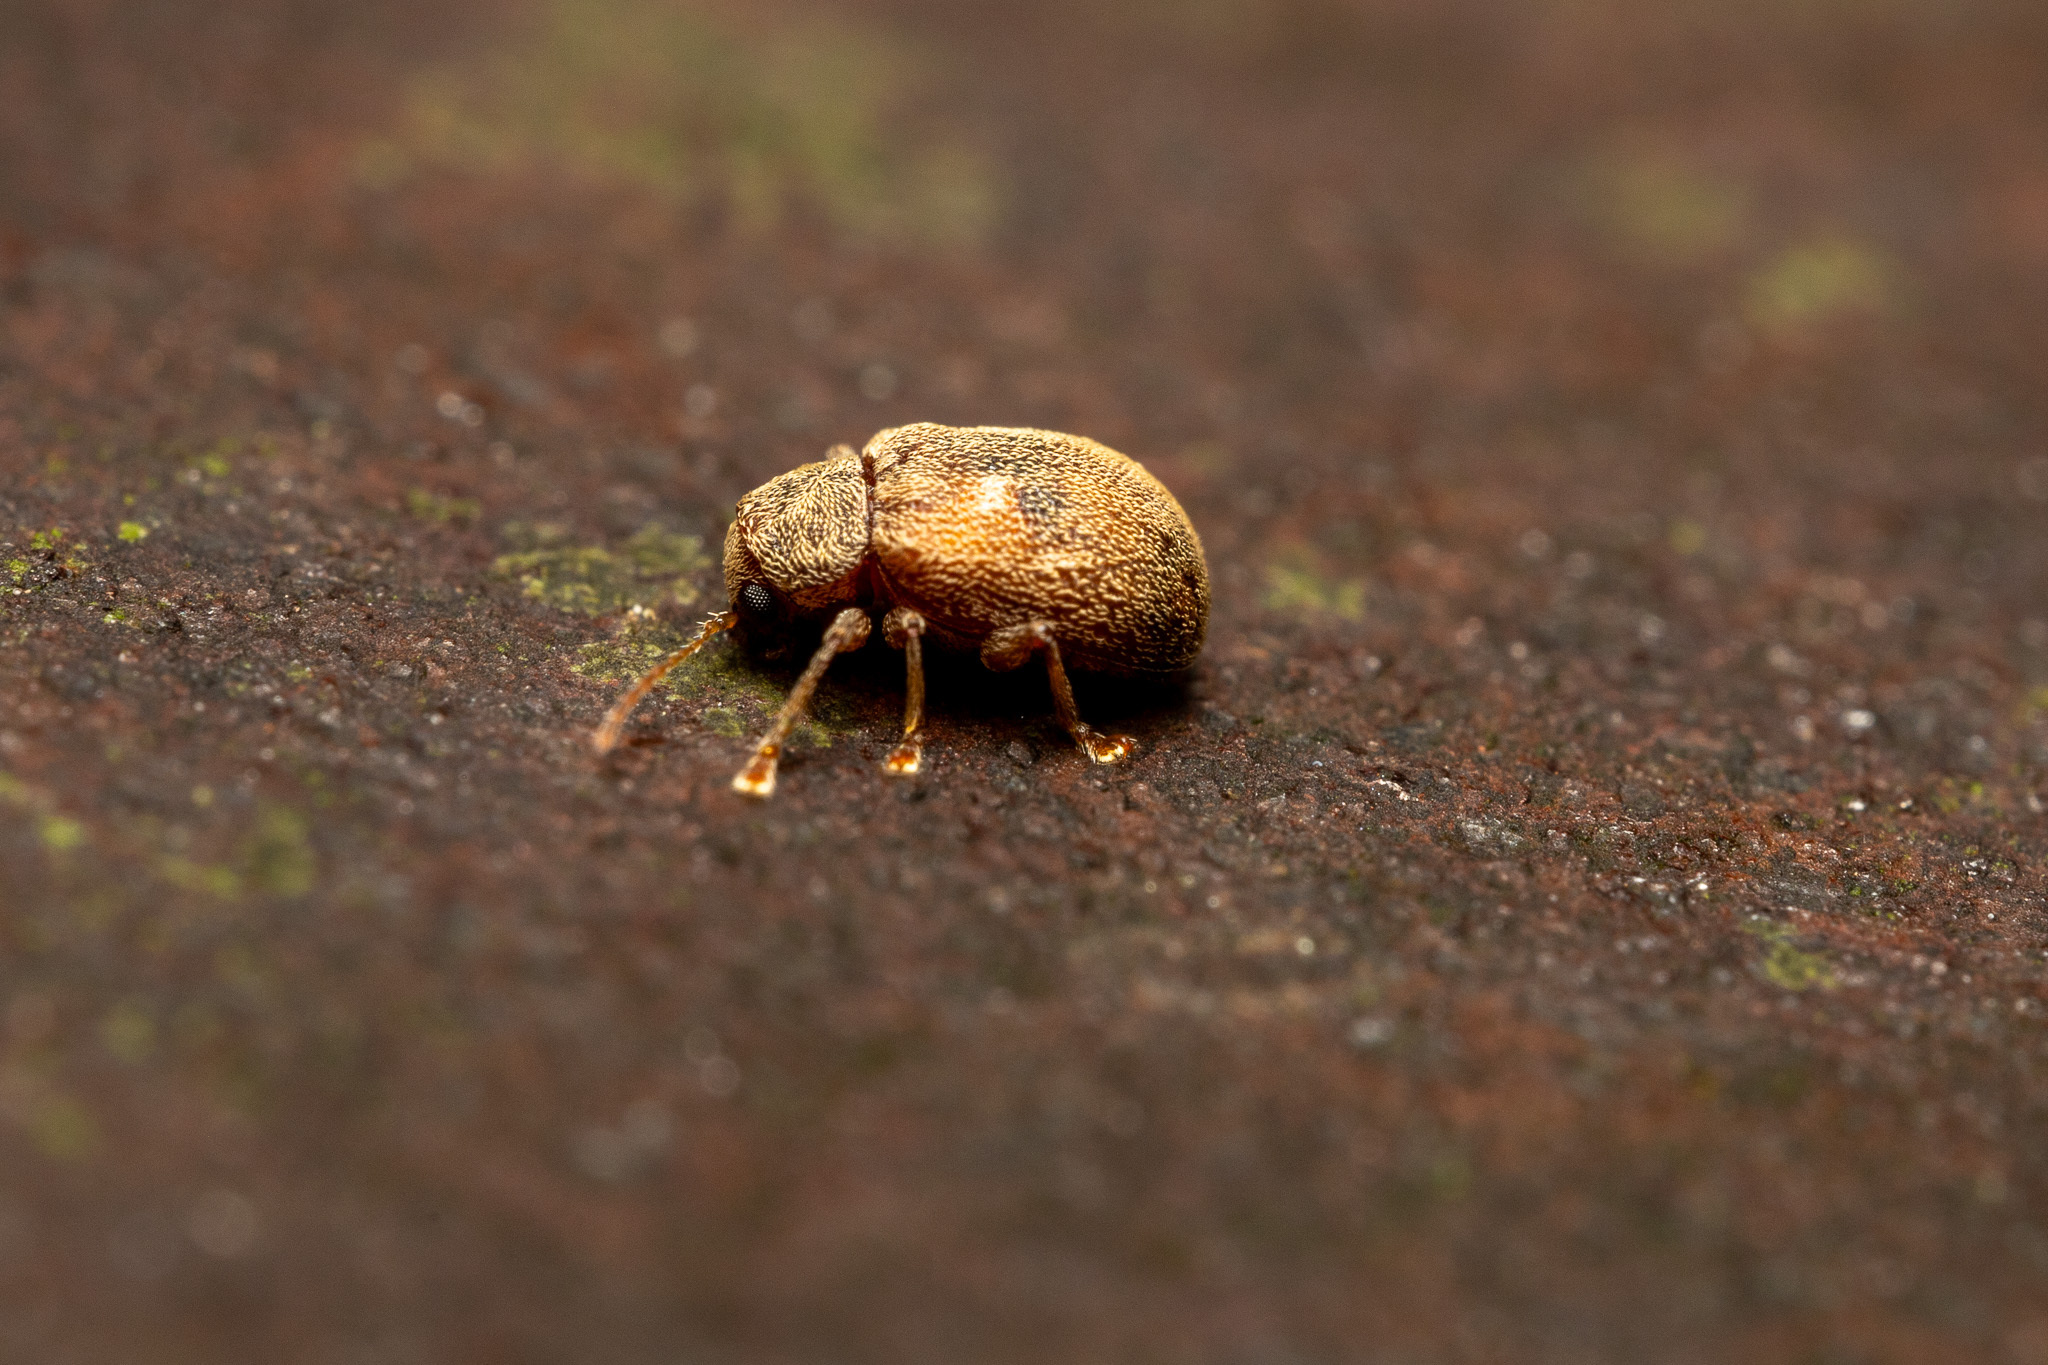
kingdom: Animalia
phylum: Arthropoda
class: Insecta
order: Coleoptera
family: Chrysomelidae
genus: Demotina
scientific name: Demotina modesta
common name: Leaf beetle
